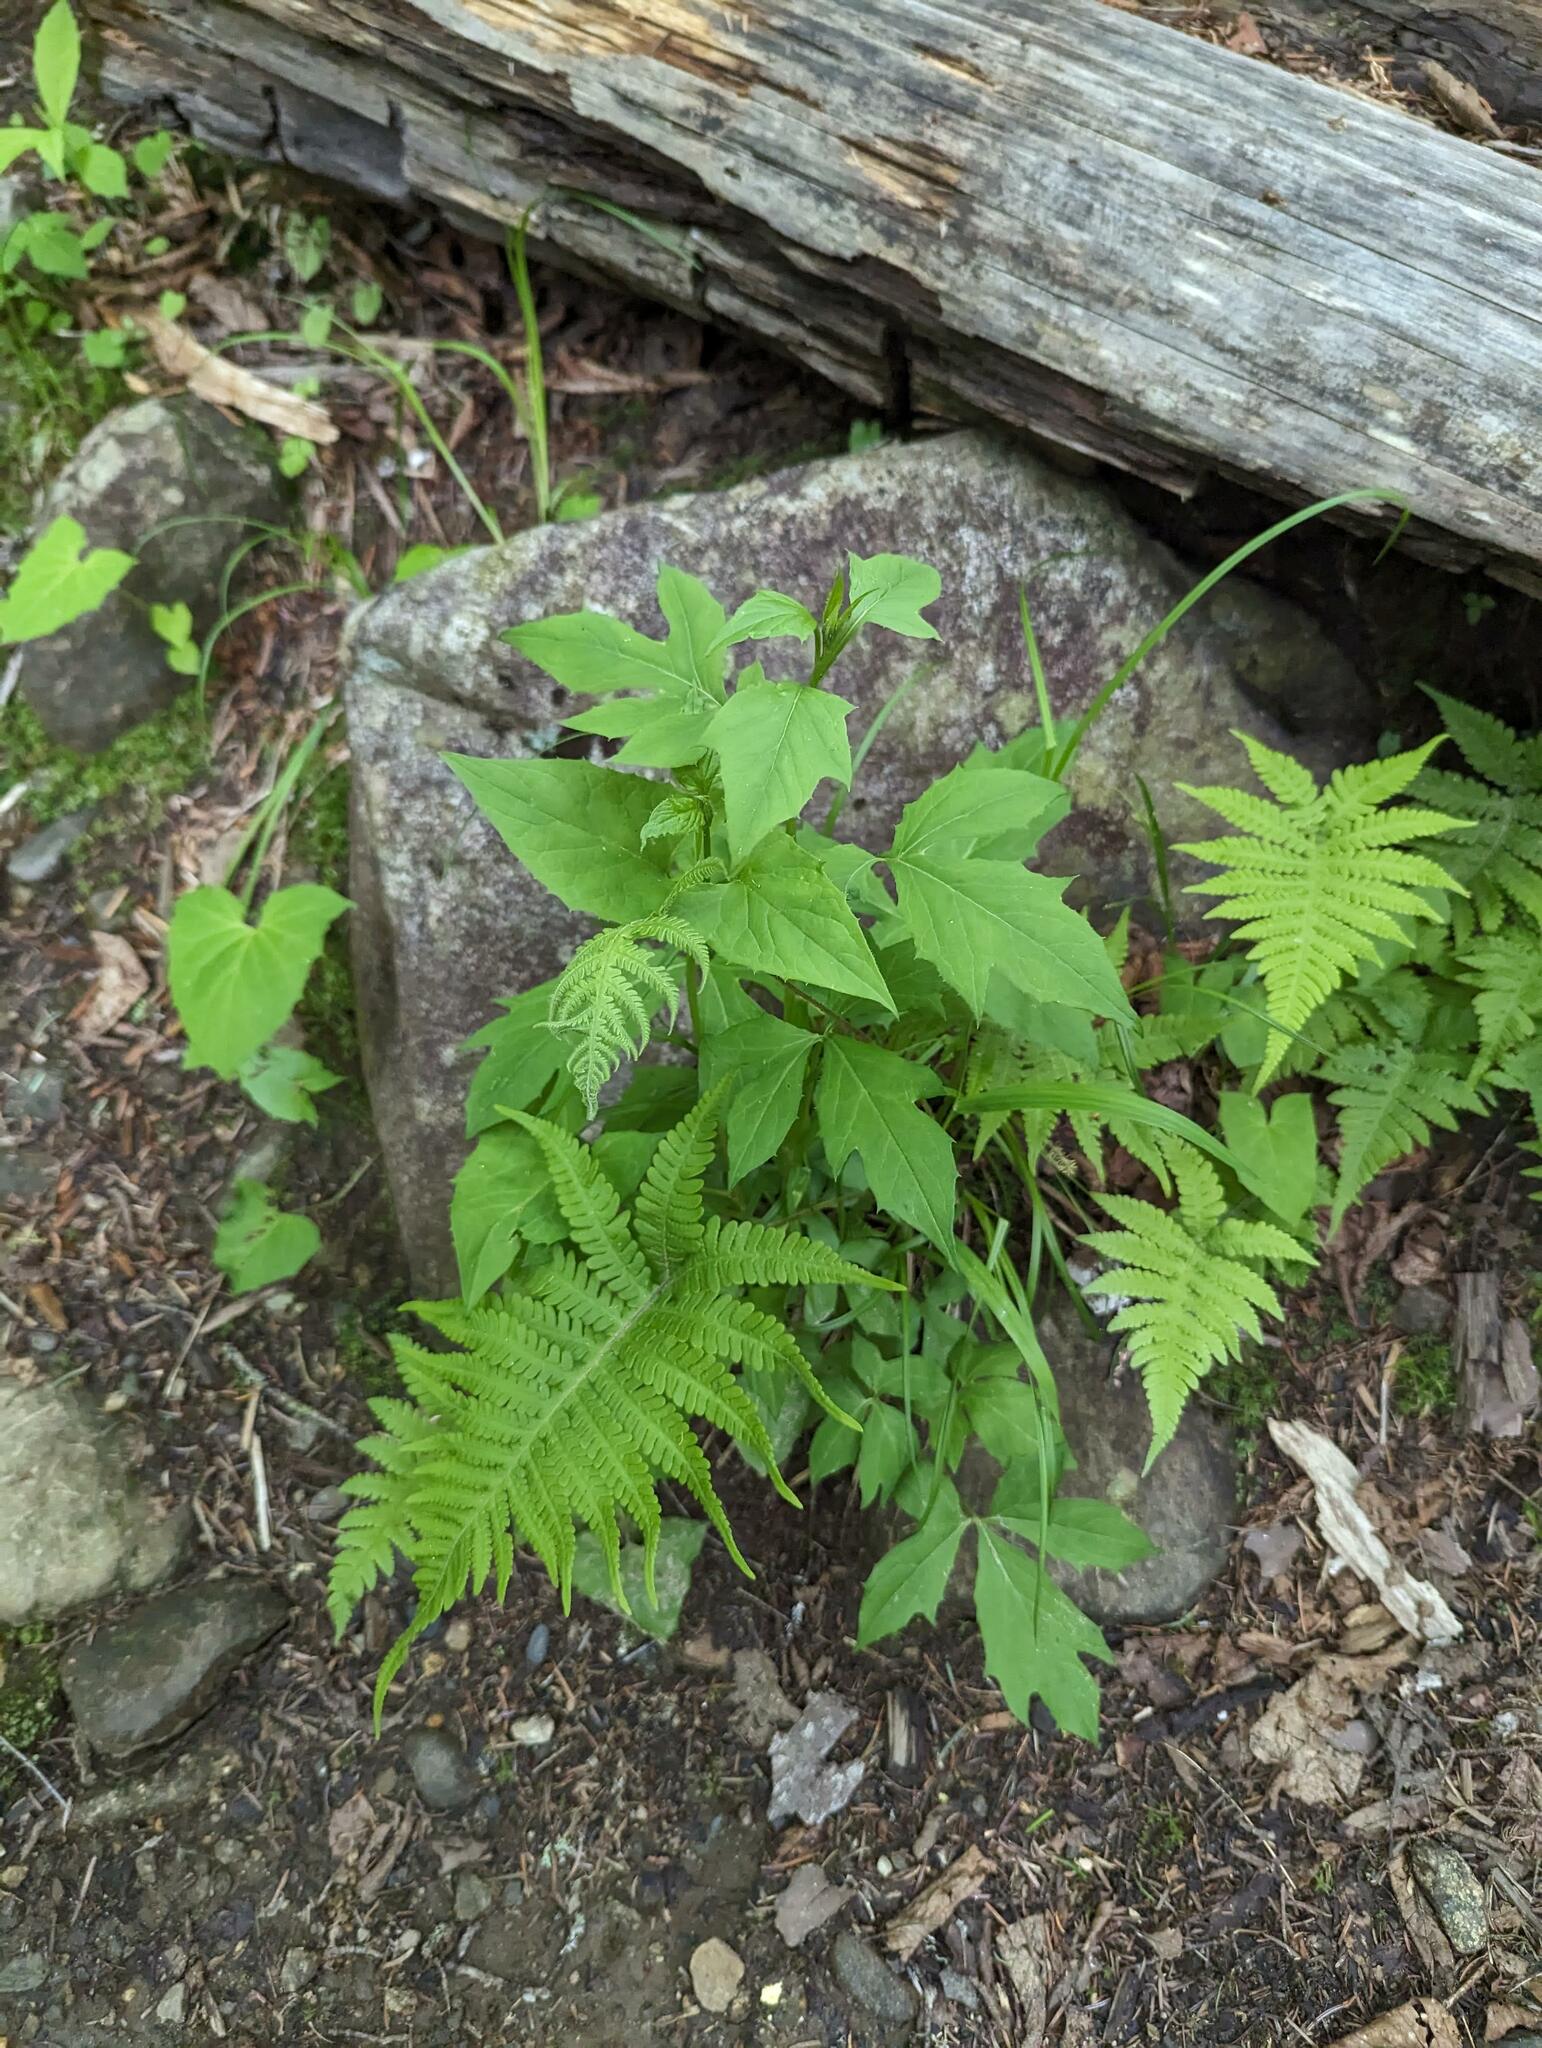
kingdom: Plantae
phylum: Tracheophyta
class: Polypodiopsida
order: Polypodiales
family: Thelypteridaceae
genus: Phegopteris
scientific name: Phegopteris connectilis
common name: Beech fern
